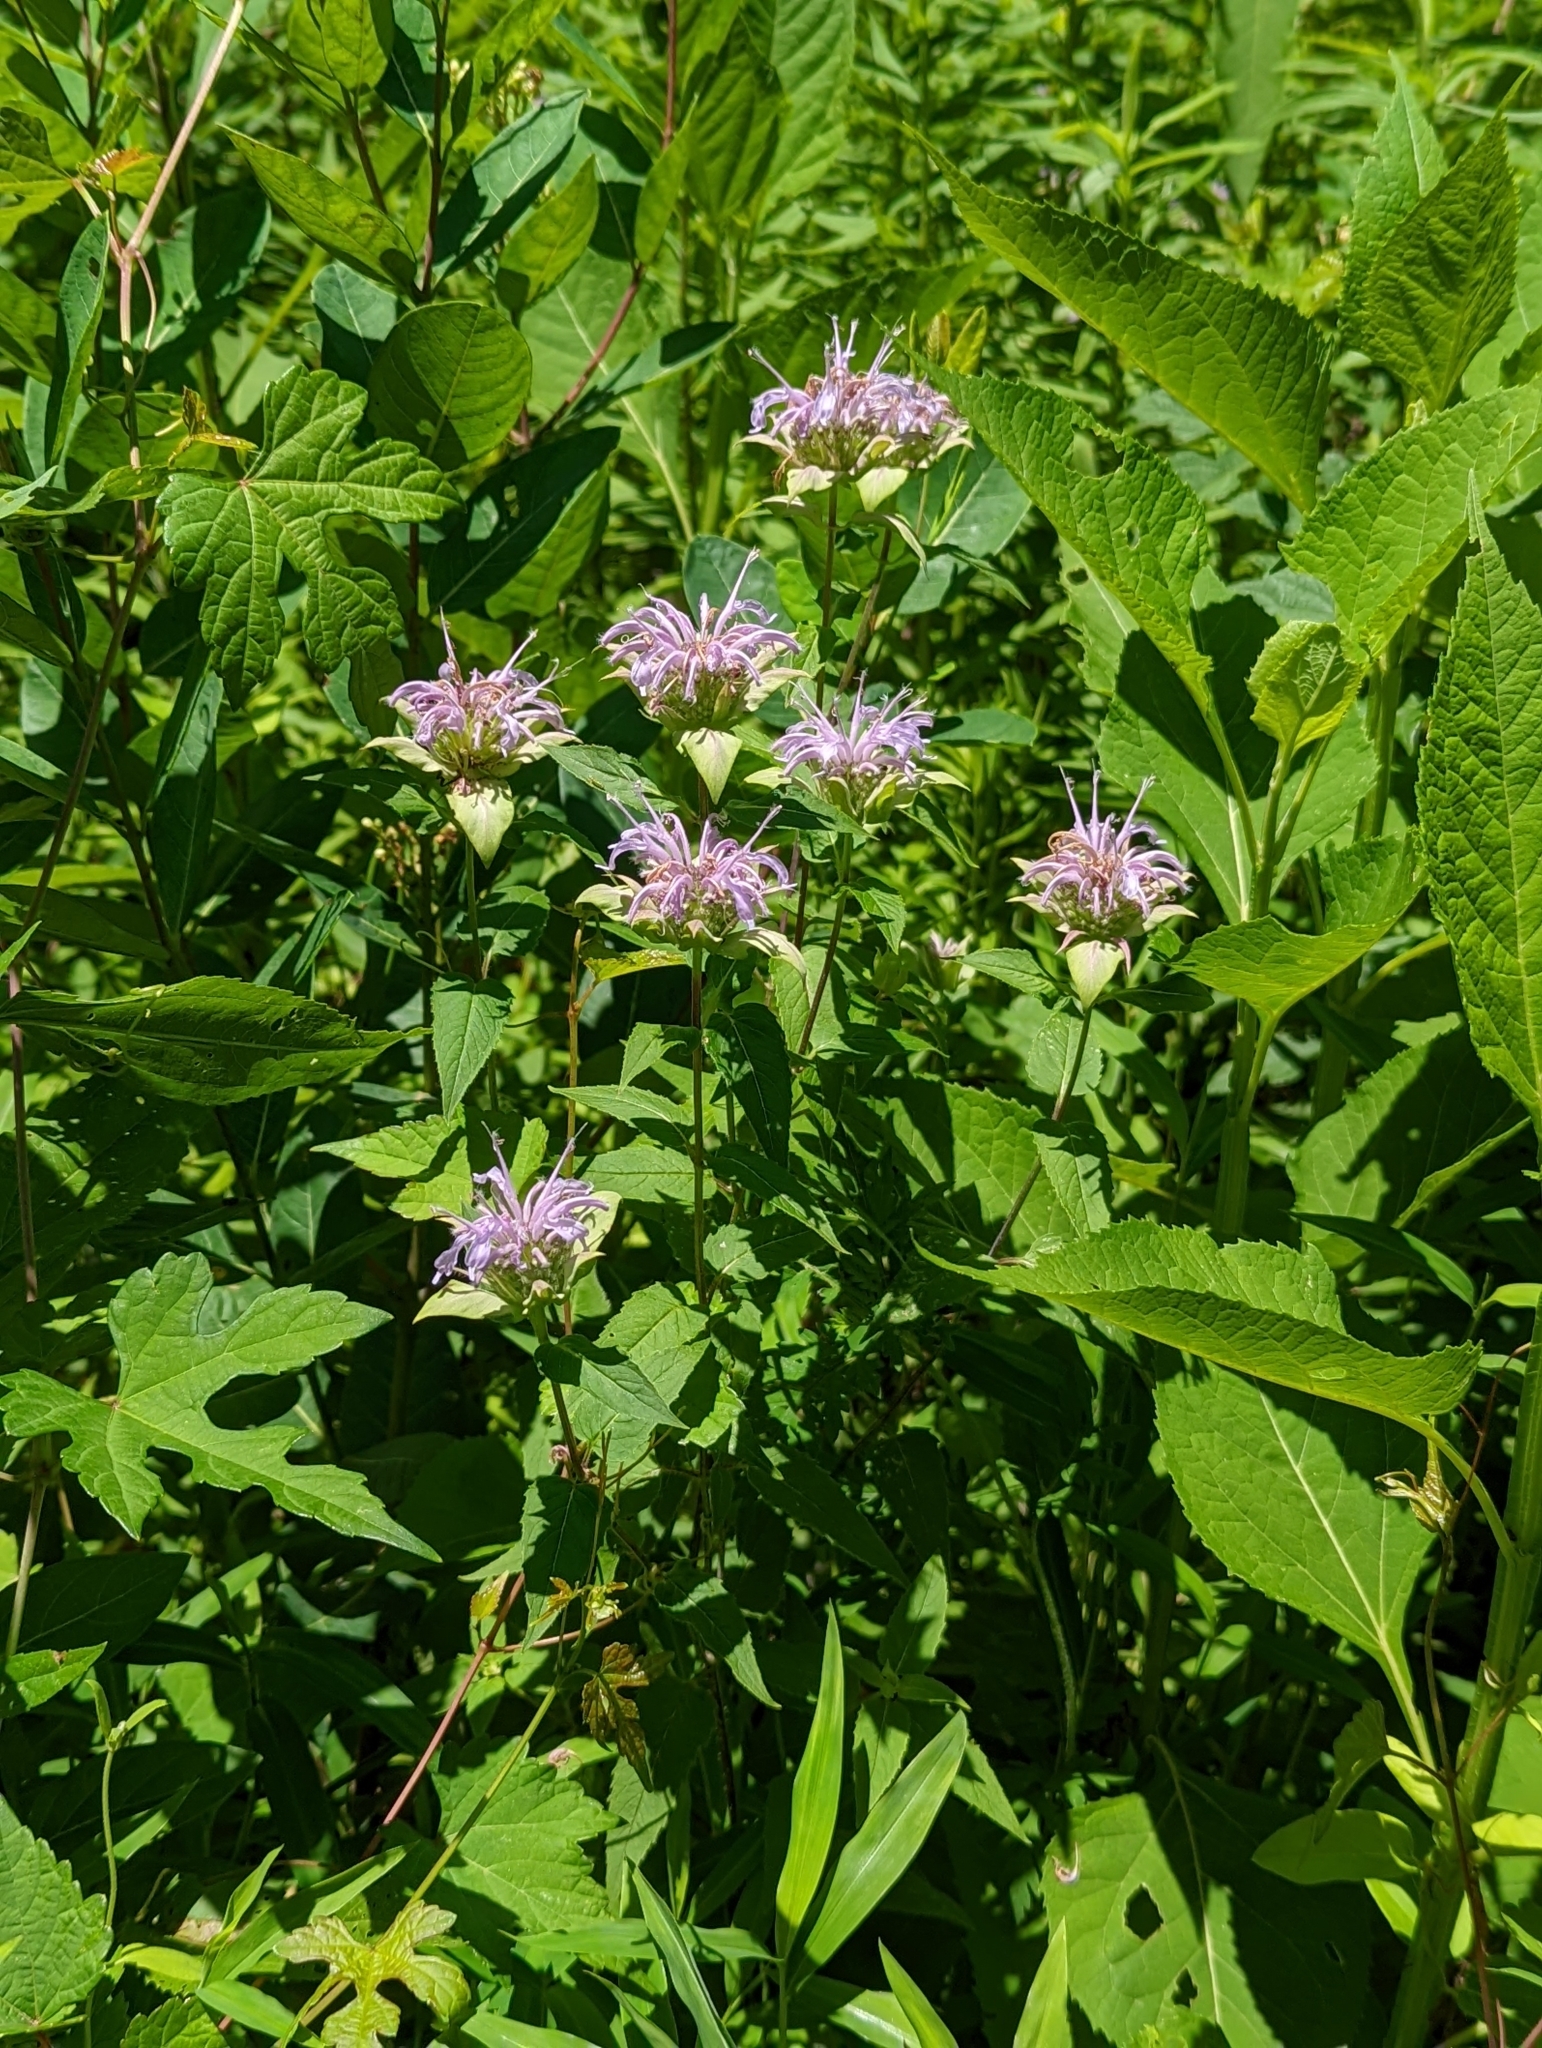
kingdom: Plantae
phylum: Tracheophyta
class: Magnoliopsida
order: Lamiales
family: Lamiaceae
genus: Monarda
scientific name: Monarda fistulosa
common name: Purple beebalm
